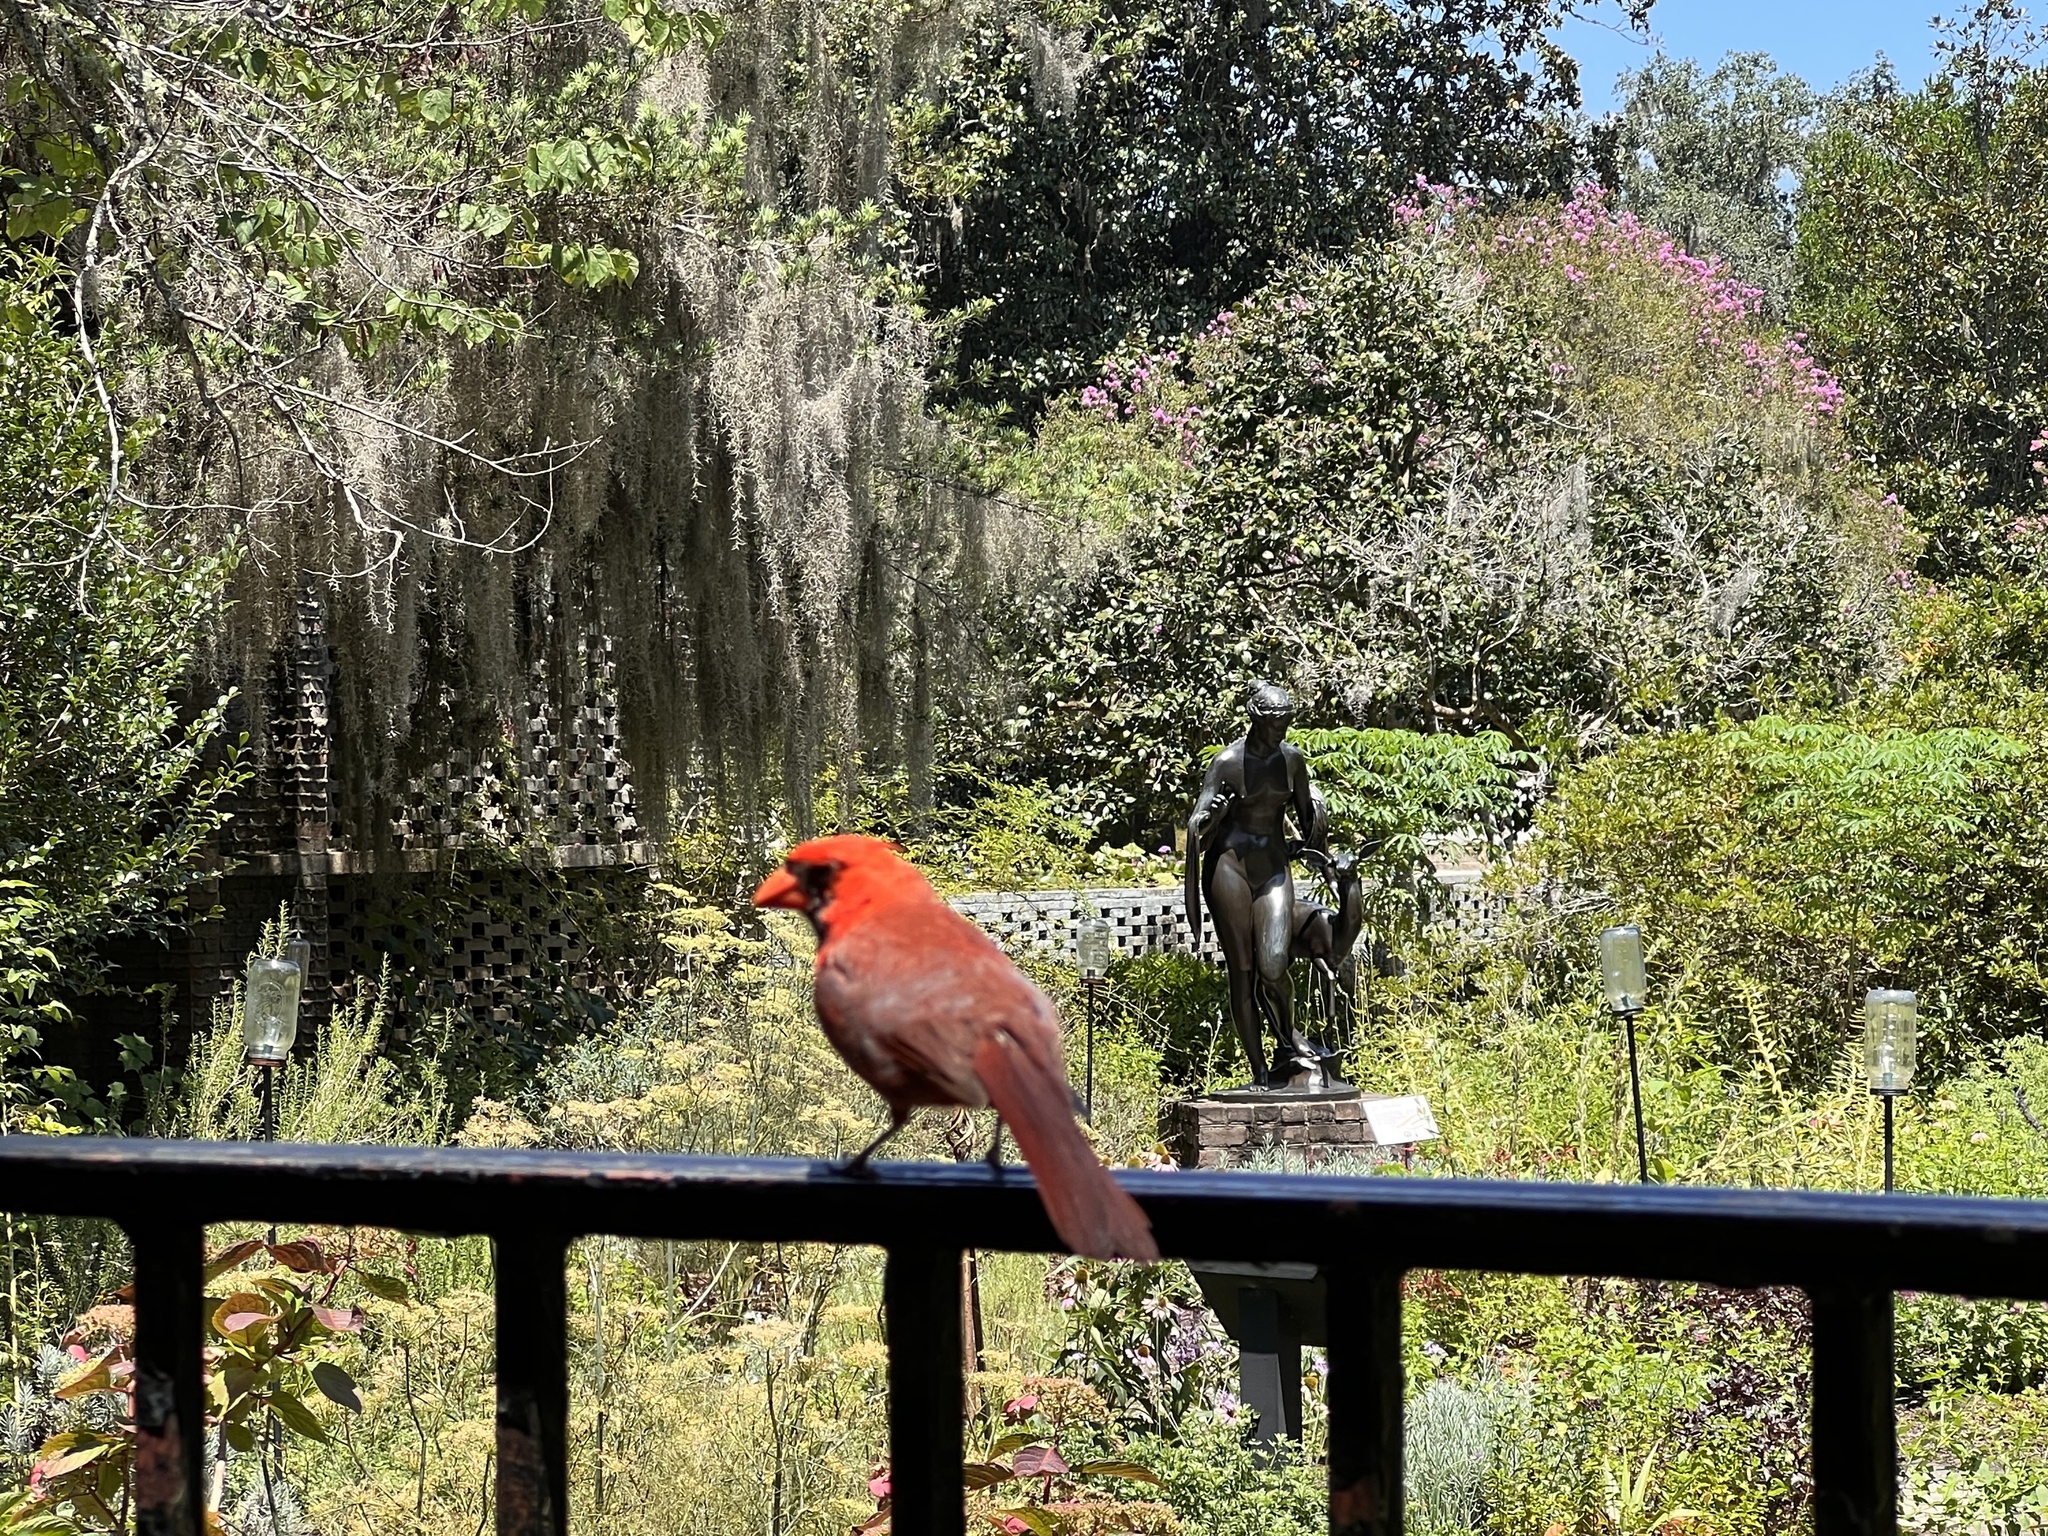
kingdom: Animalia
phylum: Chordata
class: Aves
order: Passeriformes
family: Cardinalidae
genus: Cardinalis
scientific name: Cardinalis cardinalis
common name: Northern cardinal
